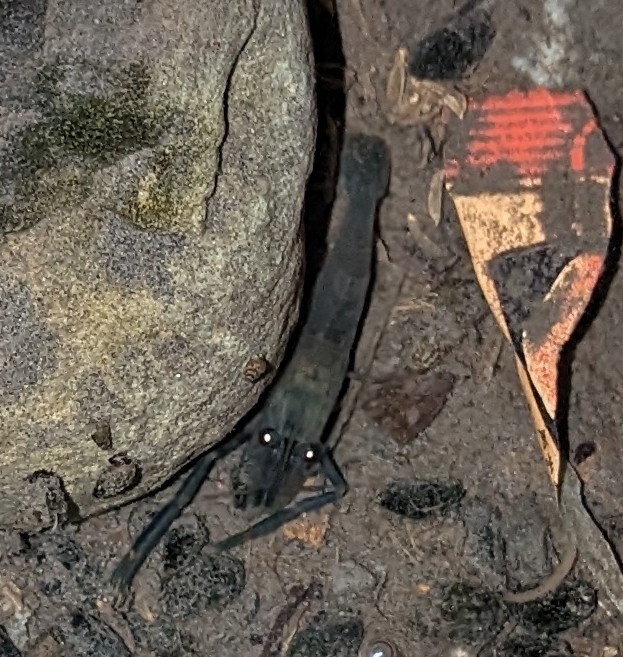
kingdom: Animalia
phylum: Arthropoda
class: Malacostraca
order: Decapoda
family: Palaemonidae
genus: Macrobrachium
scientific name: Macrobrachium asperulum
